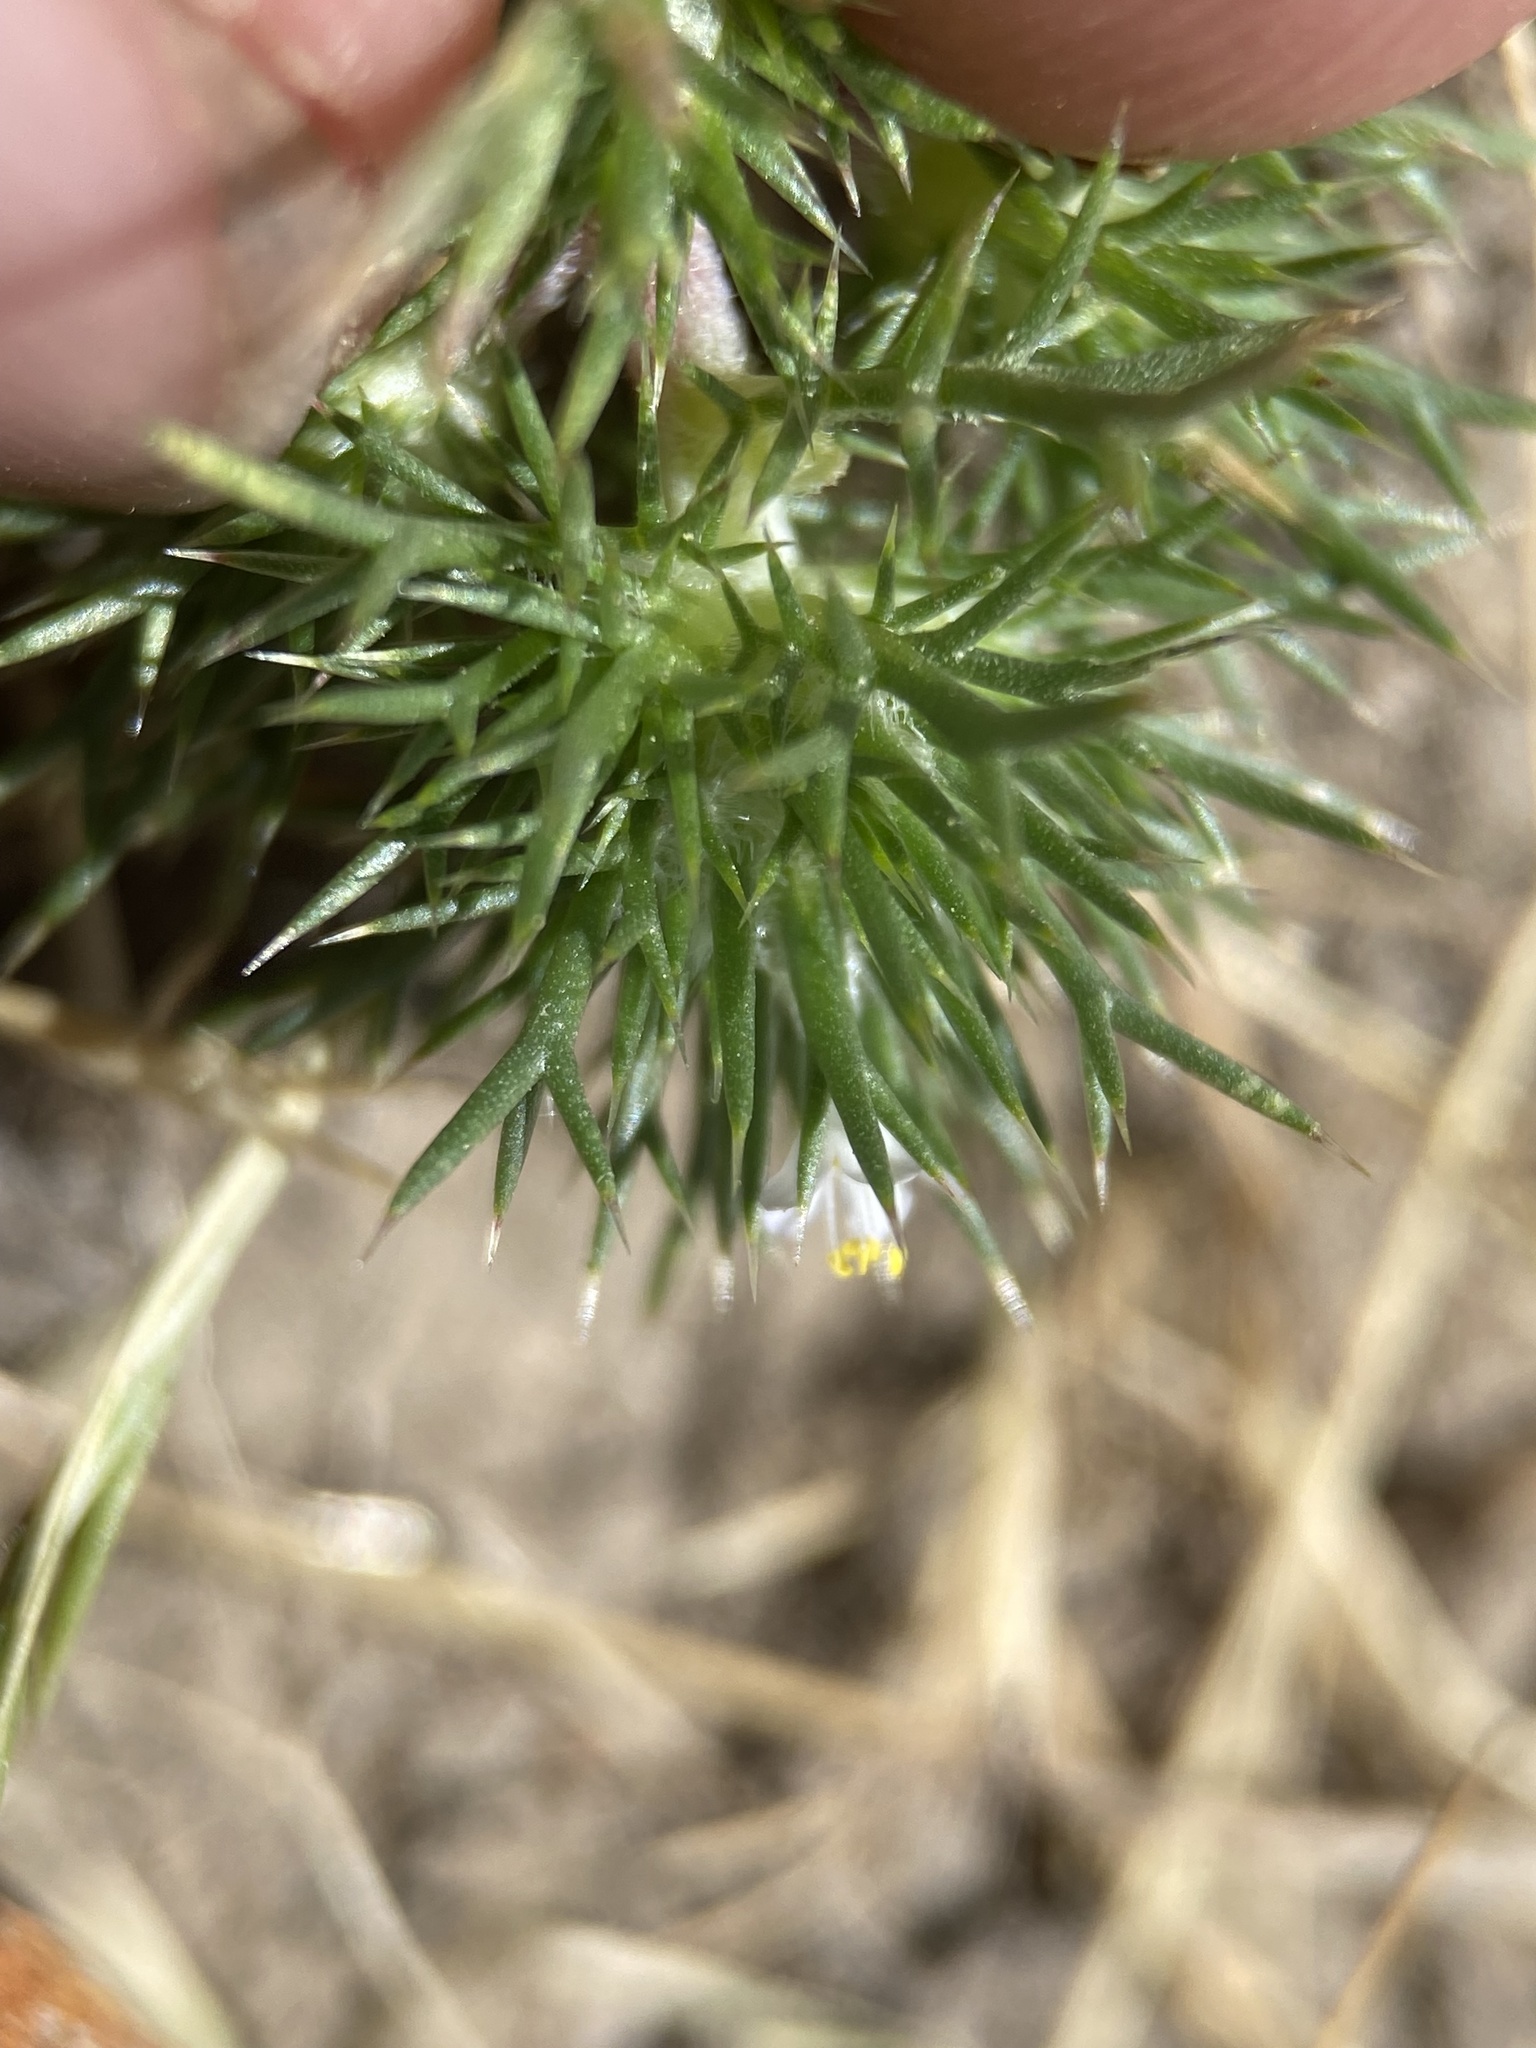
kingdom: Plantae
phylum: Tracheophyta
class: Magnoliopsida
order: Ericales
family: Polemoniaceae
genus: Navarretia
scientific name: Navarretia intertexta
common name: Needle-leaved navarretia
